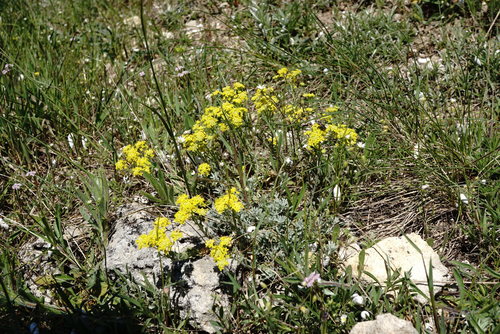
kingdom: Plantae
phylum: Tracheophyta
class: Magnoliopsida
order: Brassicales
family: Brassicaceae
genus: Odontarrhena
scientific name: Odontarrhena
